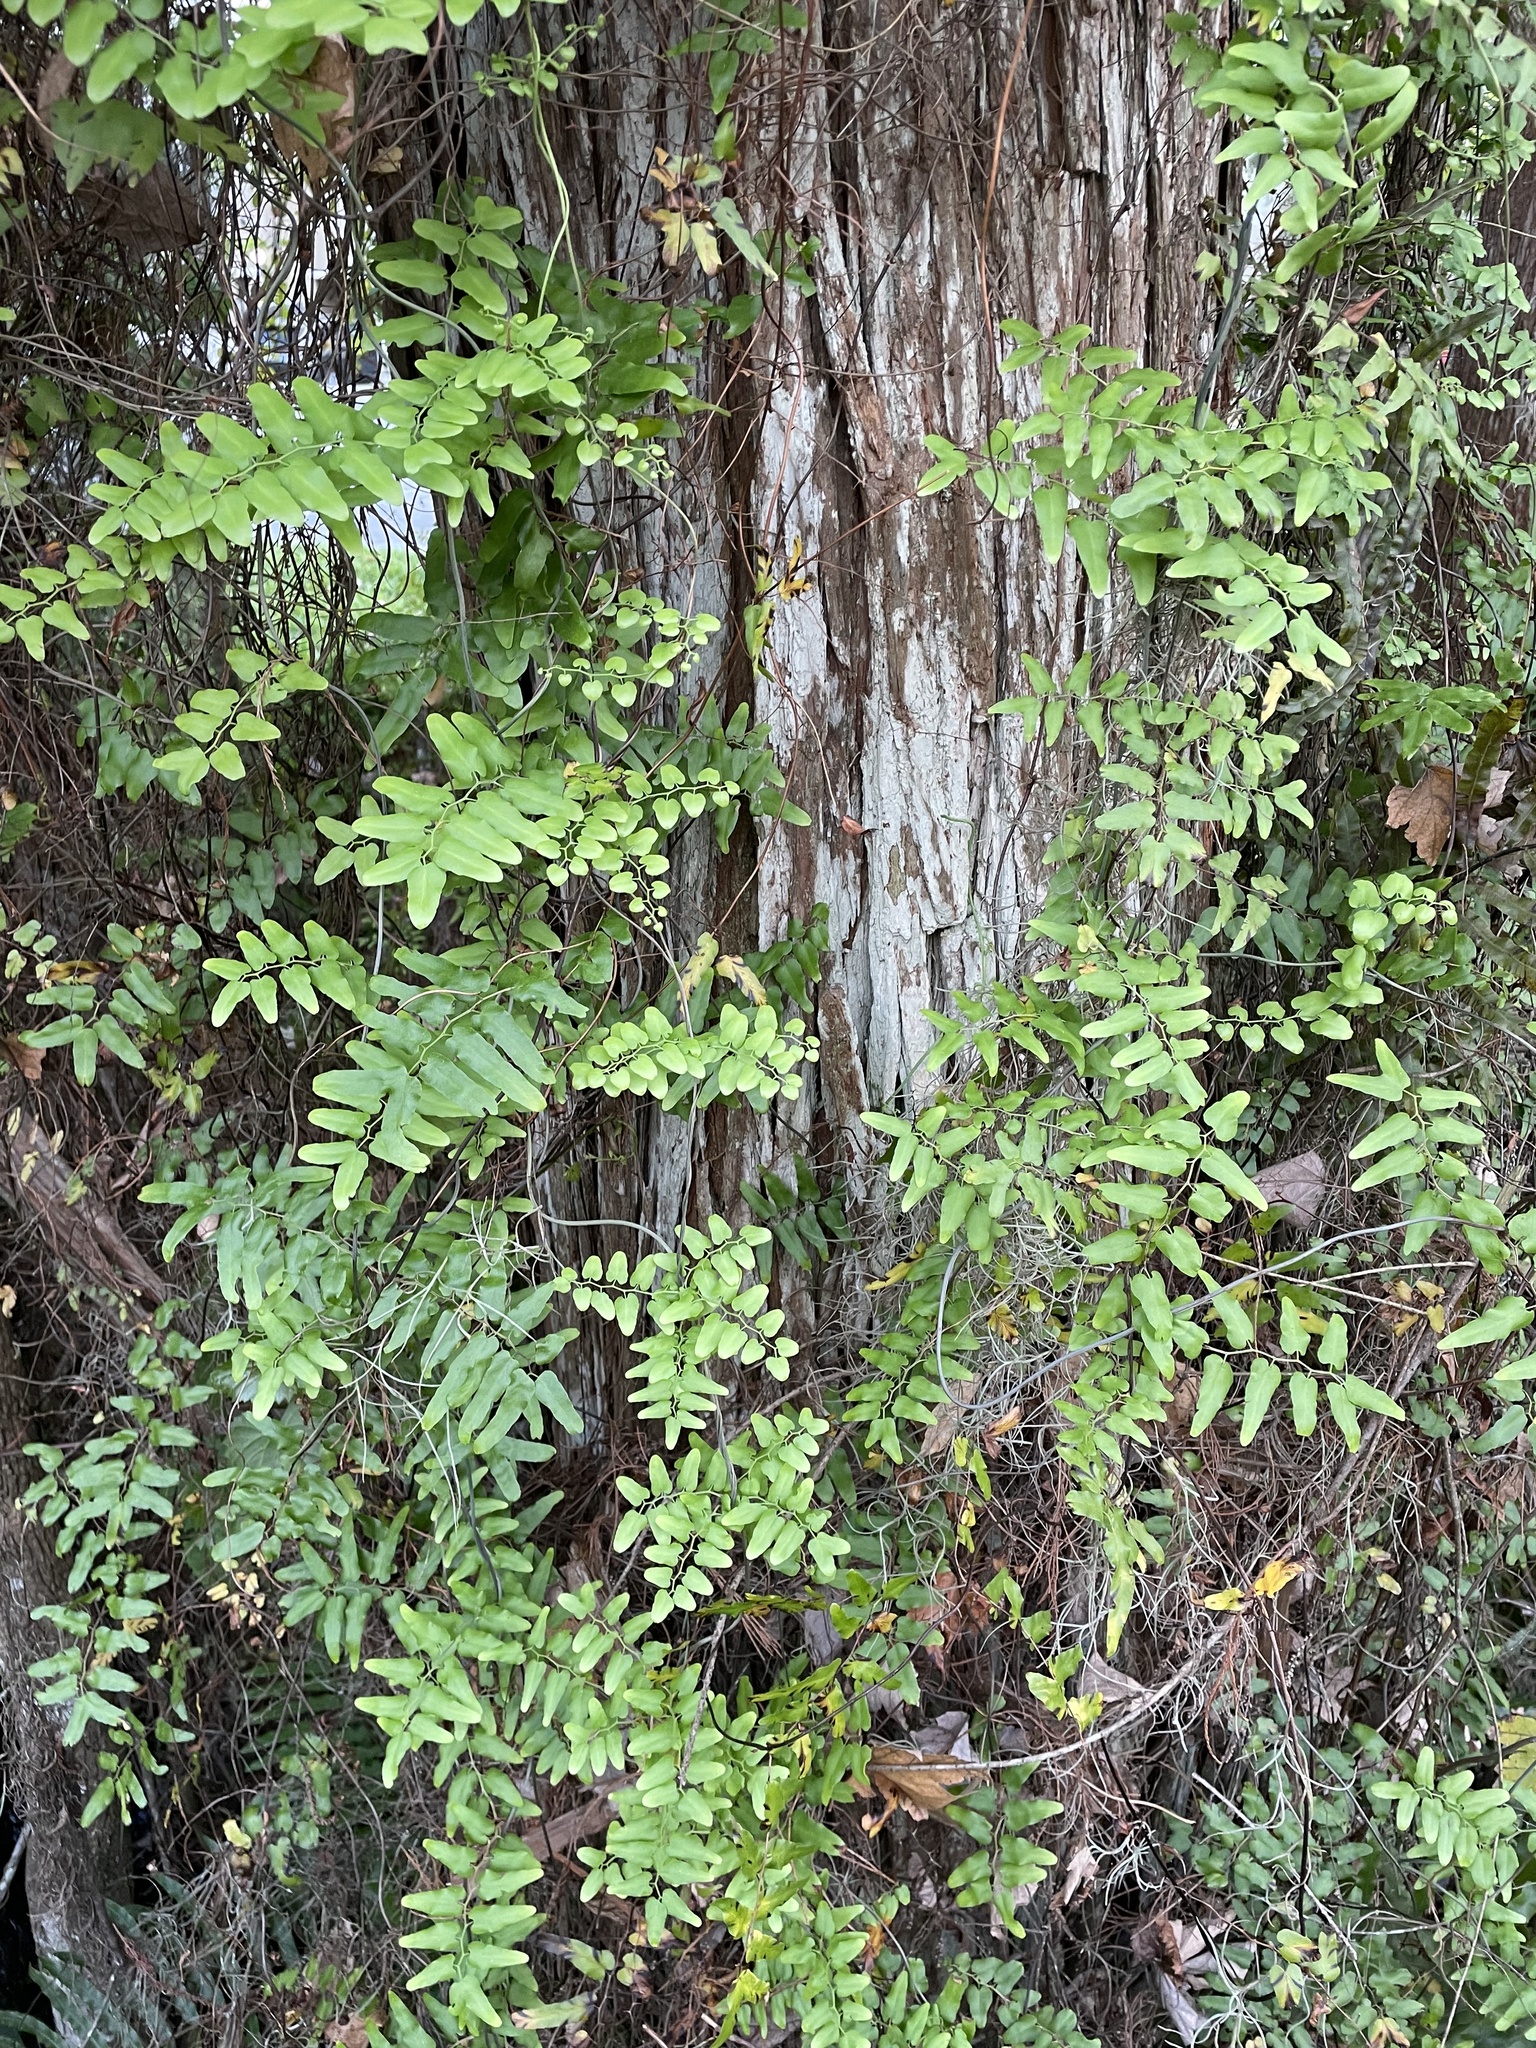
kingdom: Plantae
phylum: Tracheophyta
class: Polypodiopsida
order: Schizaeales
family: Lygodiaceae
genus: Lygodium
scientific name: Lygodium microphyllum
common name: Small-leaf climbing fern
